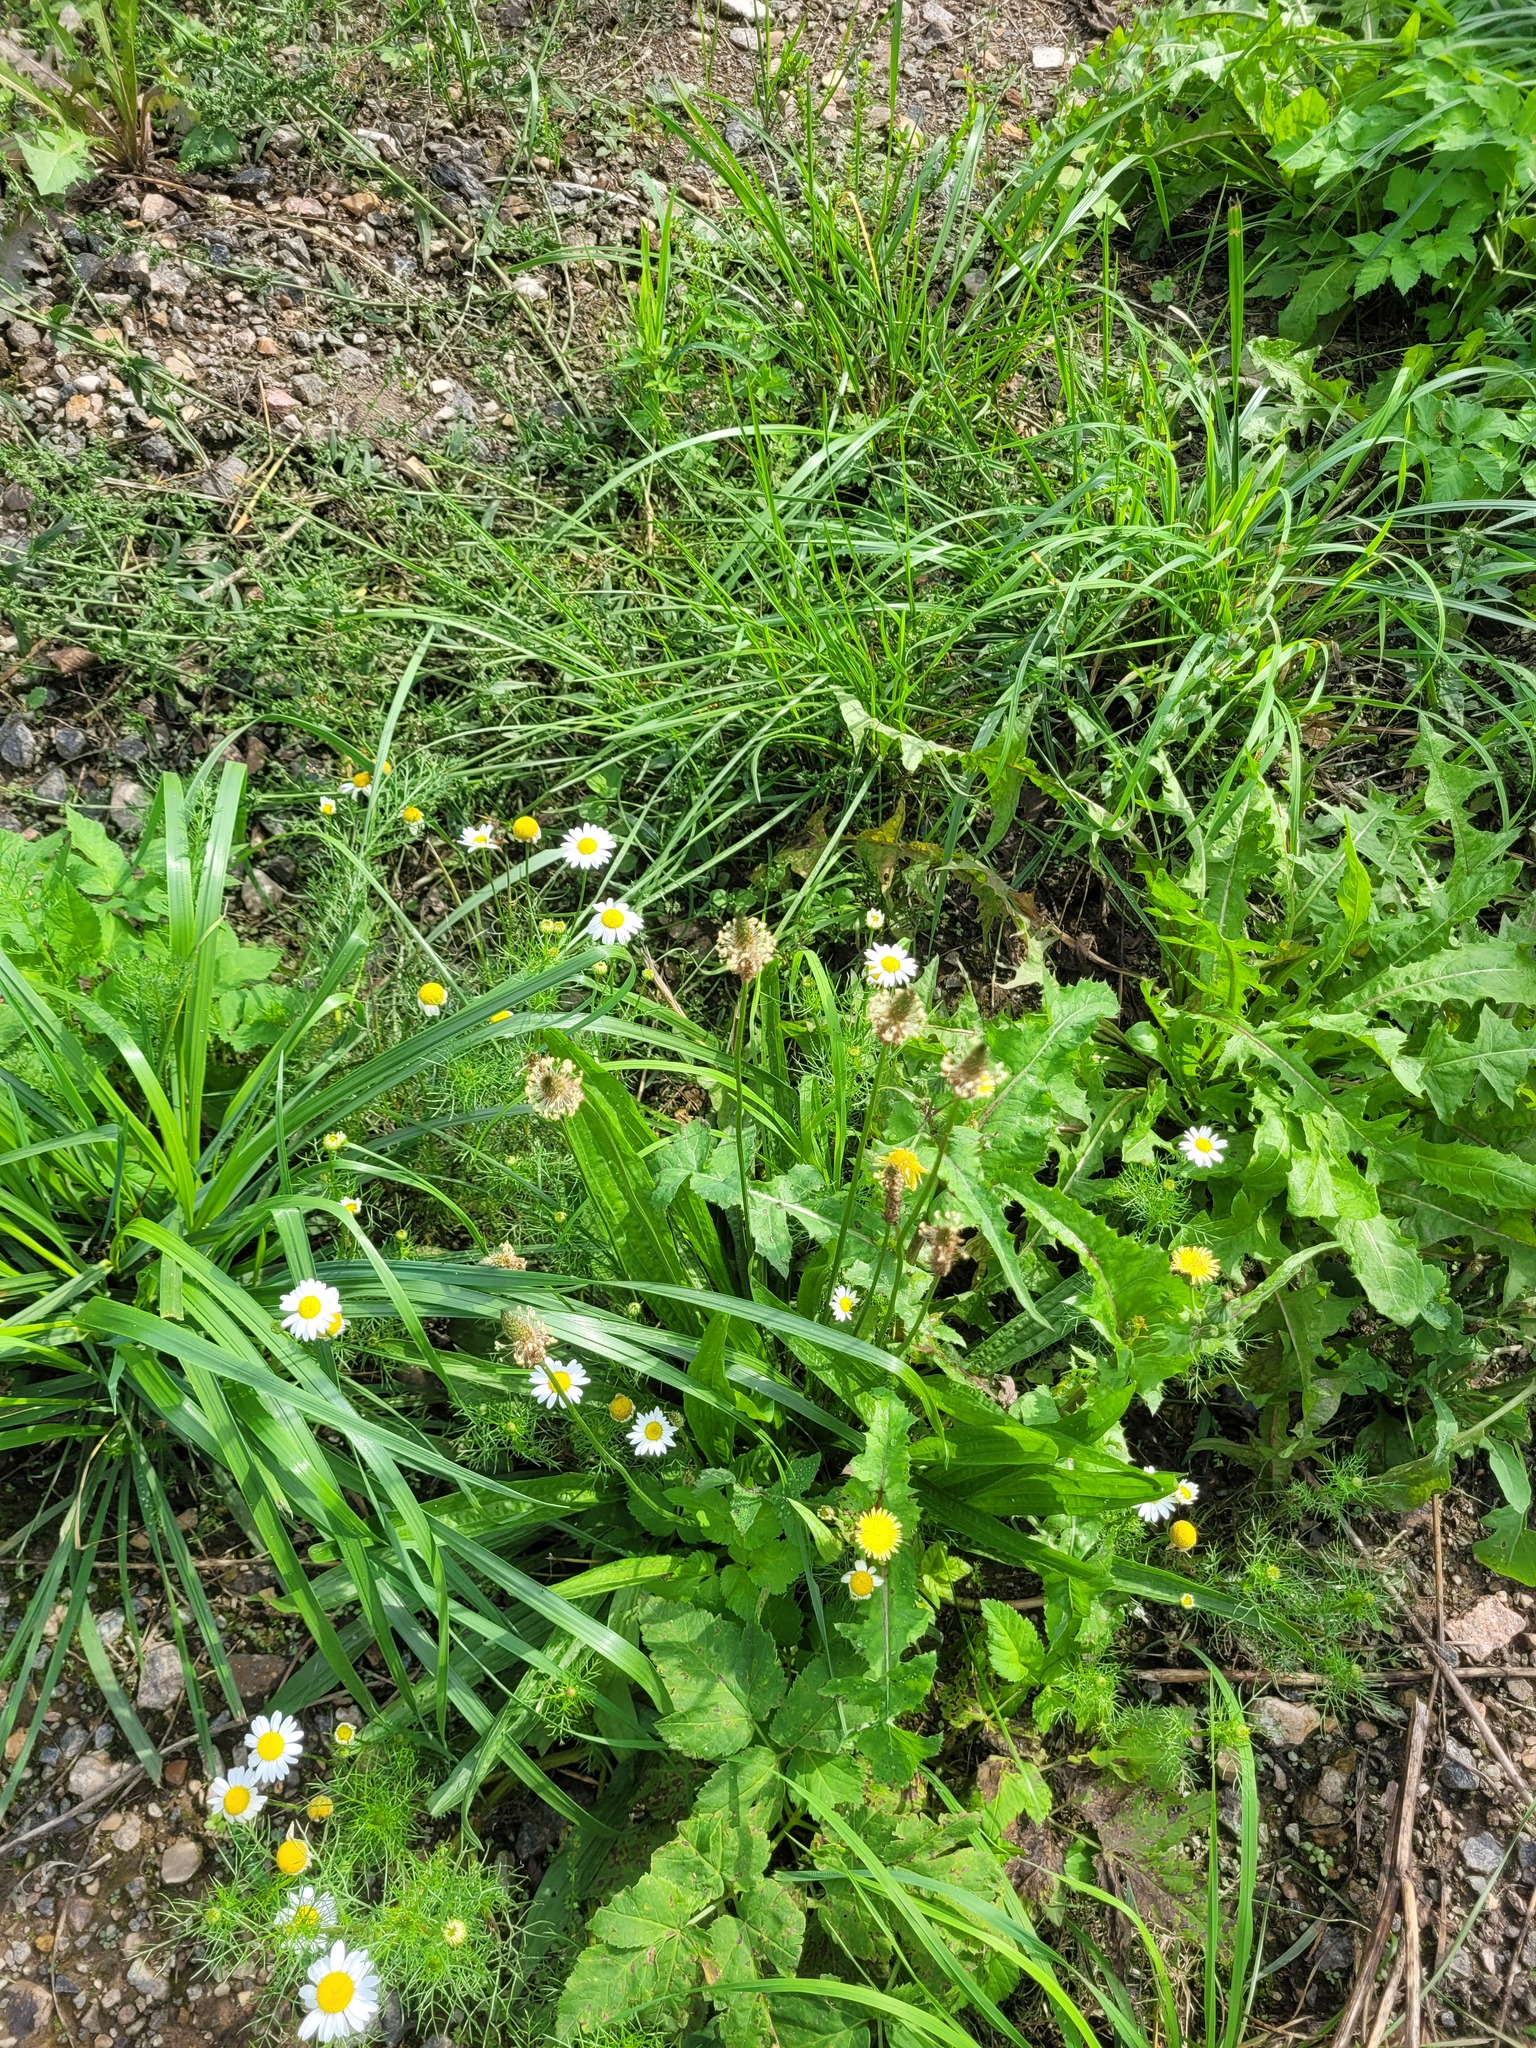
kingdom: Plantae
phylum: Tracheophyta
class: Magnoliopsida
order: Lamiales
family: Plantaginaceae
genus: Plantago
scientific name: Plantago lanceolata
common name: Ribwort plantain
